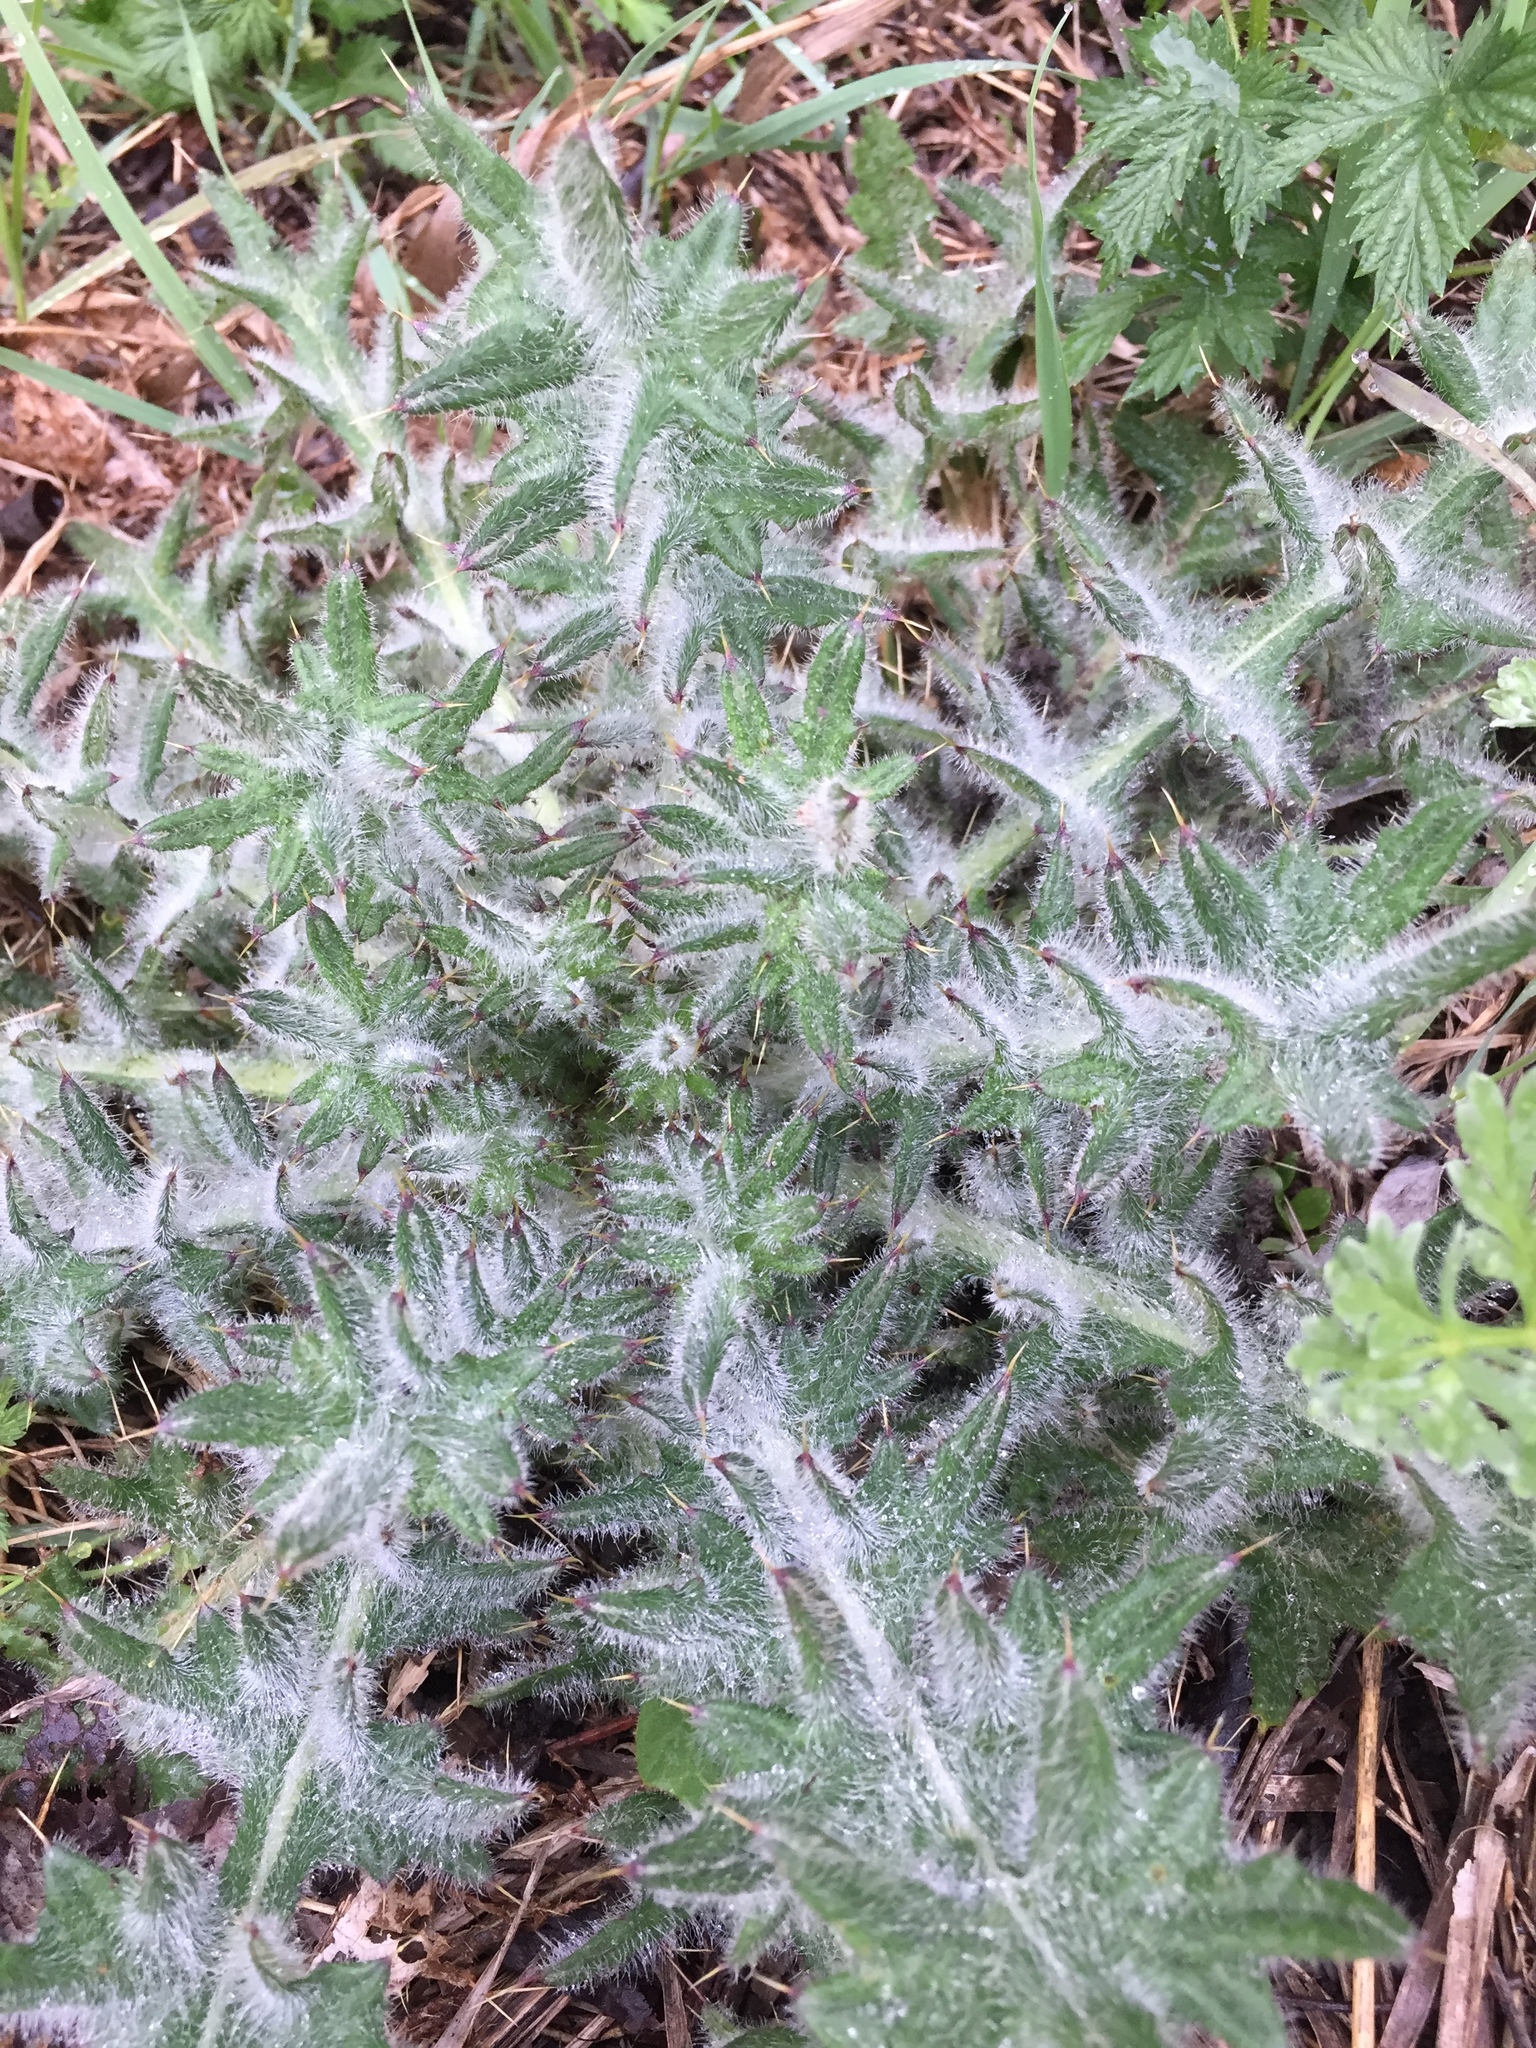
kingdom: Plantae
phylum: Tracheophyta
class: Magnoliopsida
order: Asterales
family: Asteraceae
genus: Cirsium
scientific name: Cirsium vulgare
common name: Bull thistle
